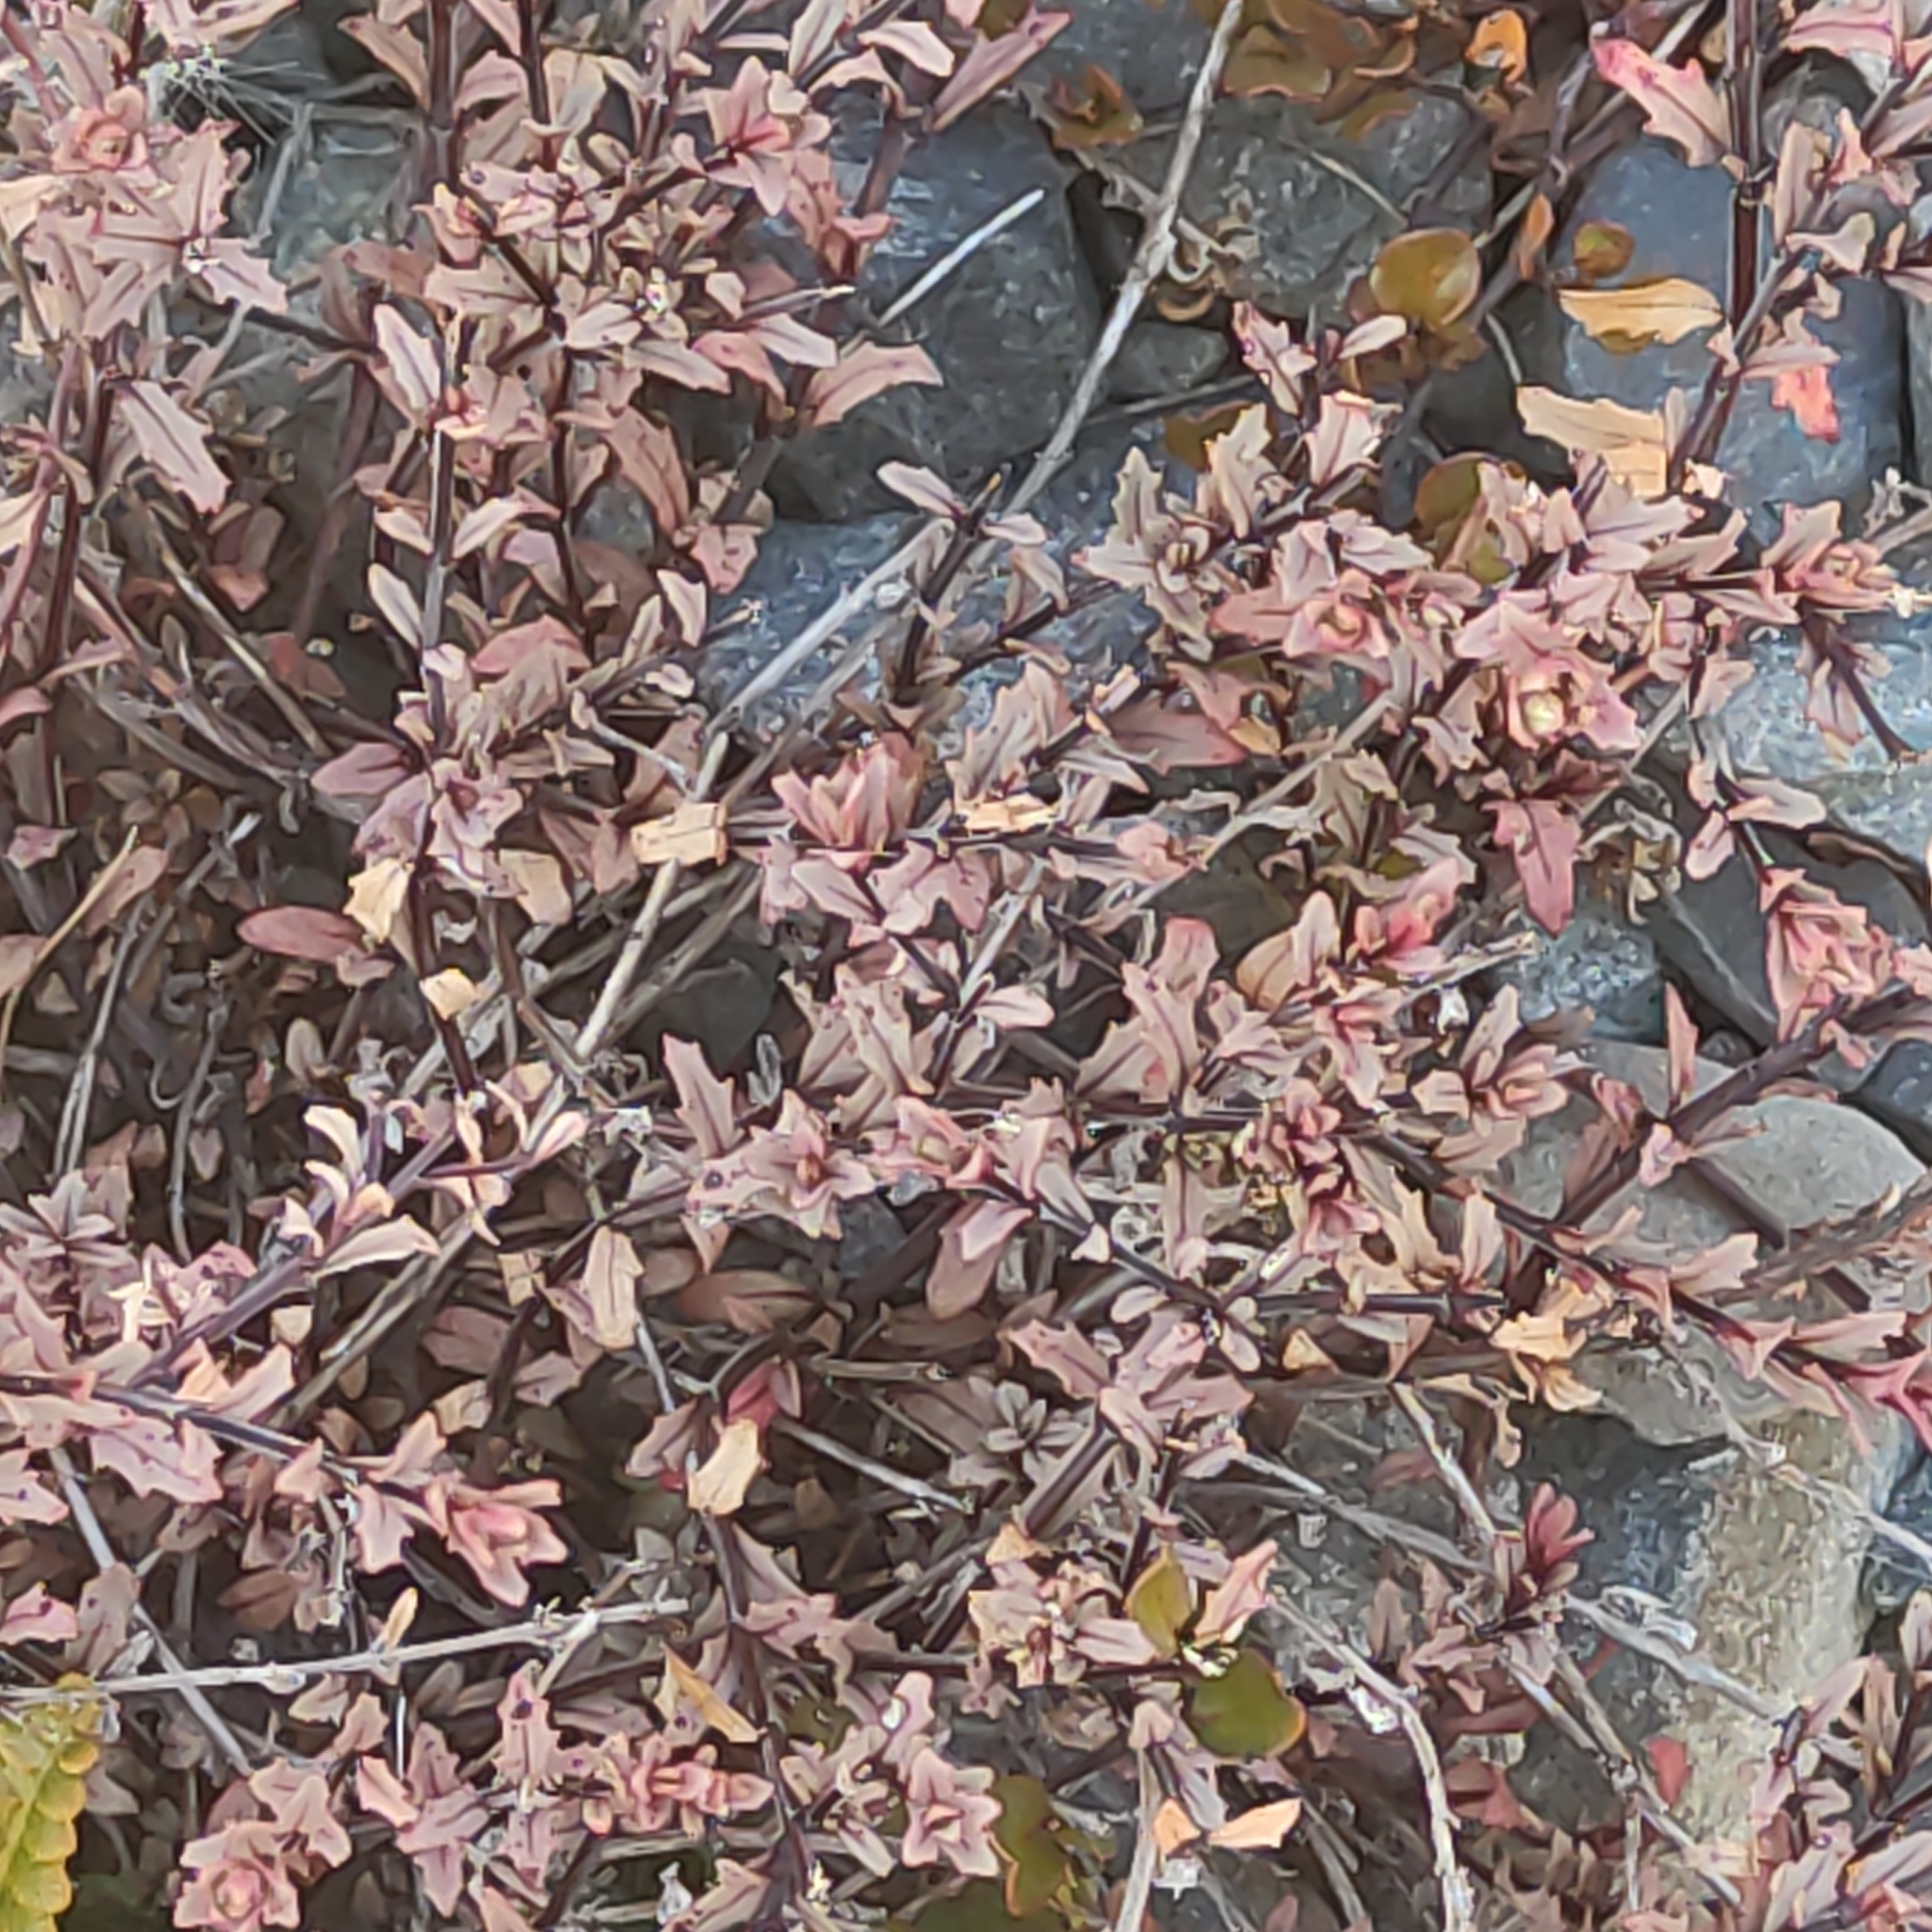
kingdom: Plantae
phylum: Tracheophyta
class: Magnoliopsida
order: Myrtales
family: Onagraceae
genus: Epilobium
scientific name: Epilobium melanocaulon
